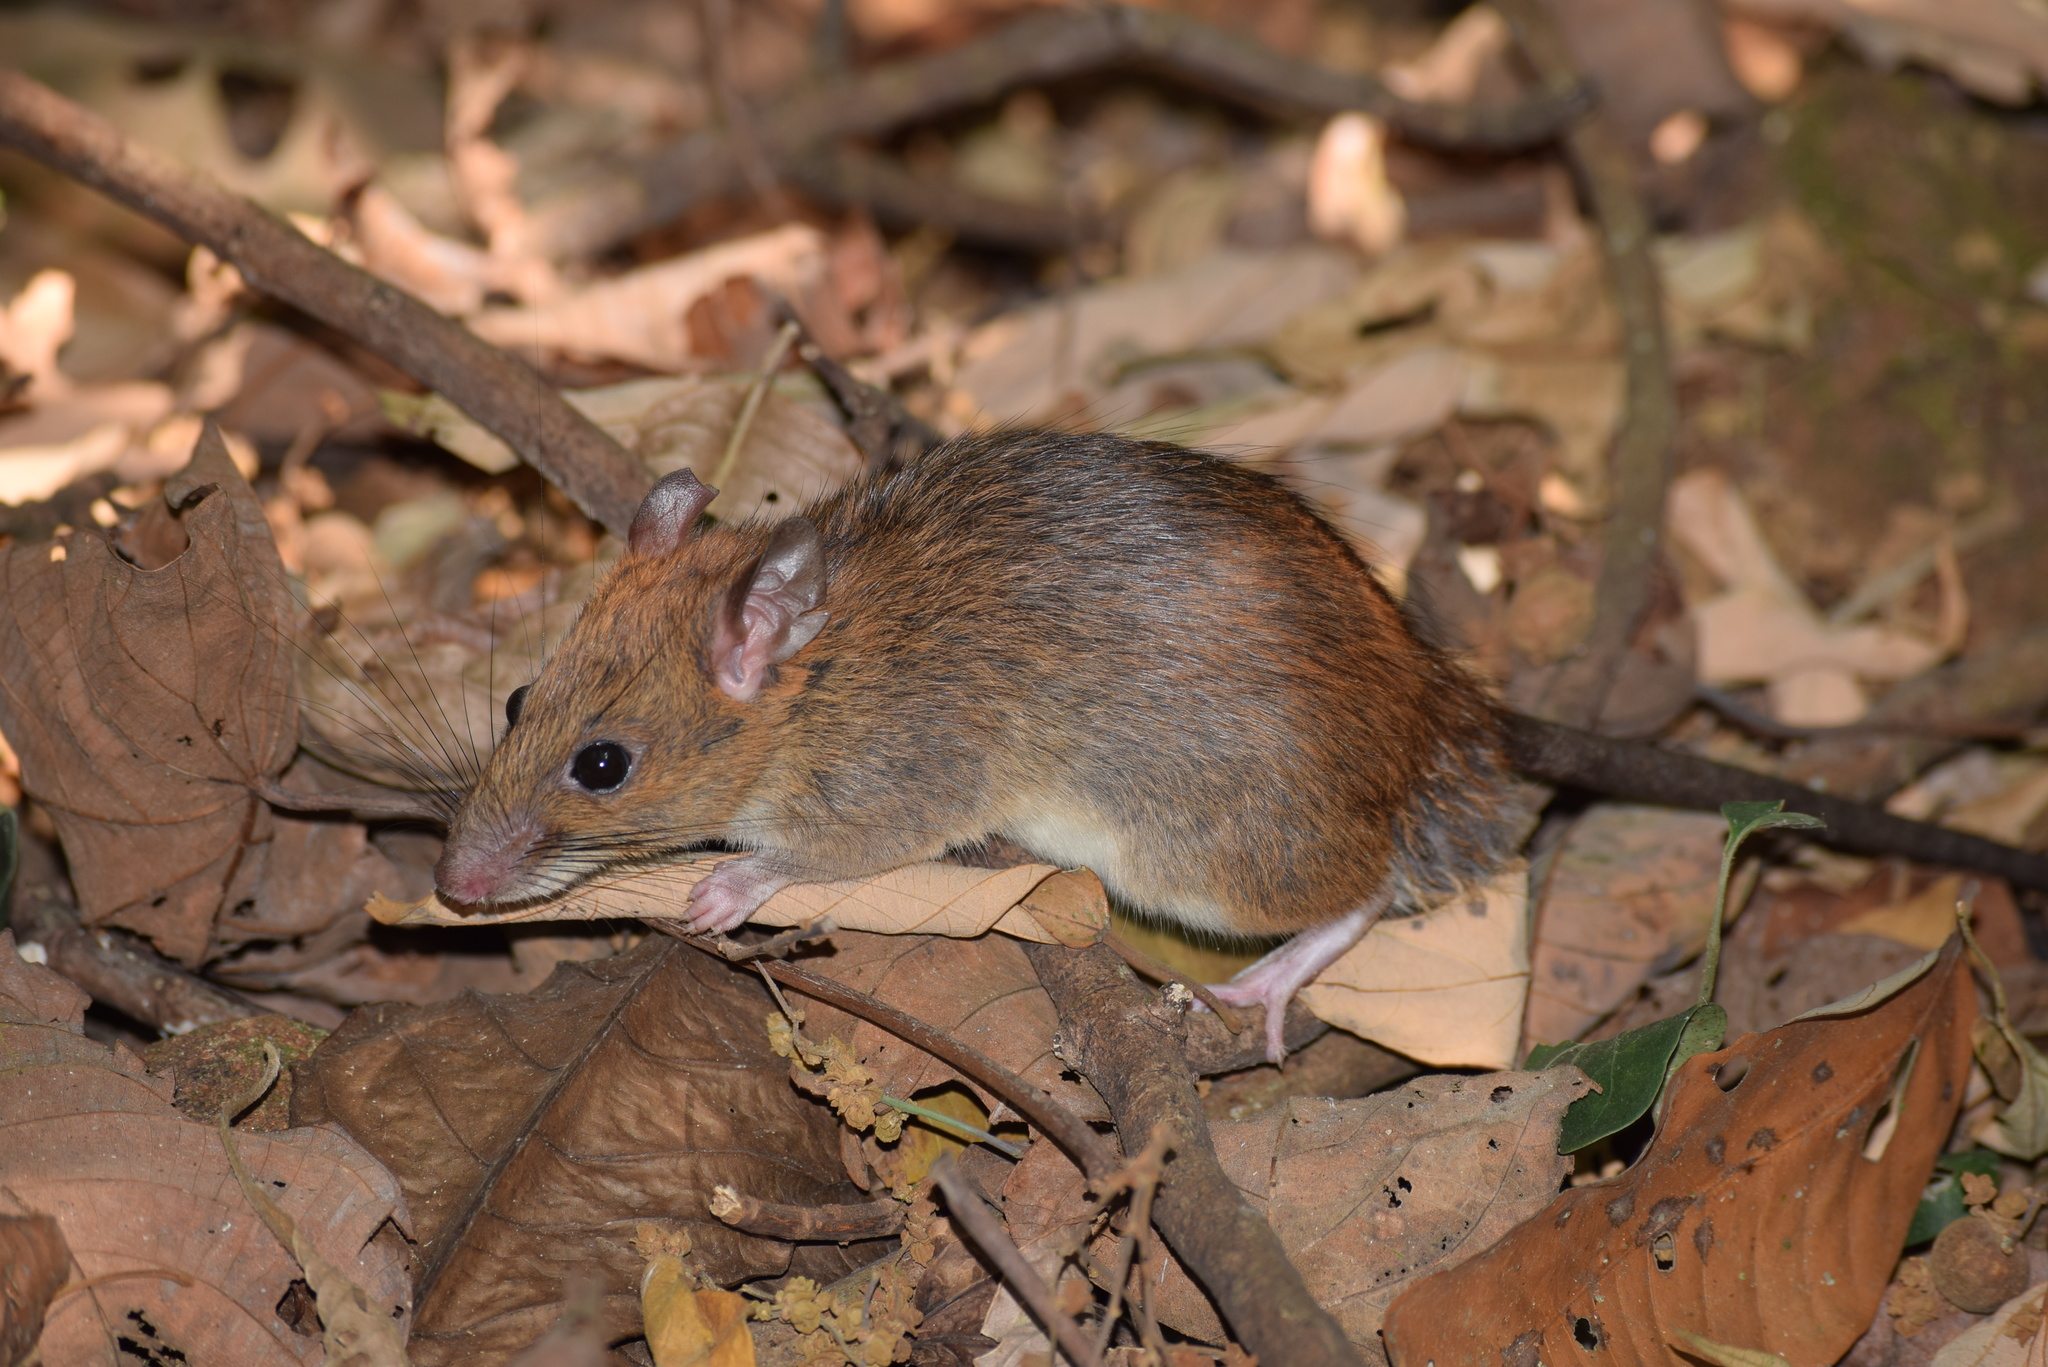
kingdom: Animalia
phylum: Chordata
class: Mammalia
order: Rodentia
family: Muridae
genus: Rattus
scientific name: Rattus satarae
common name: Sahyadris forest rat
